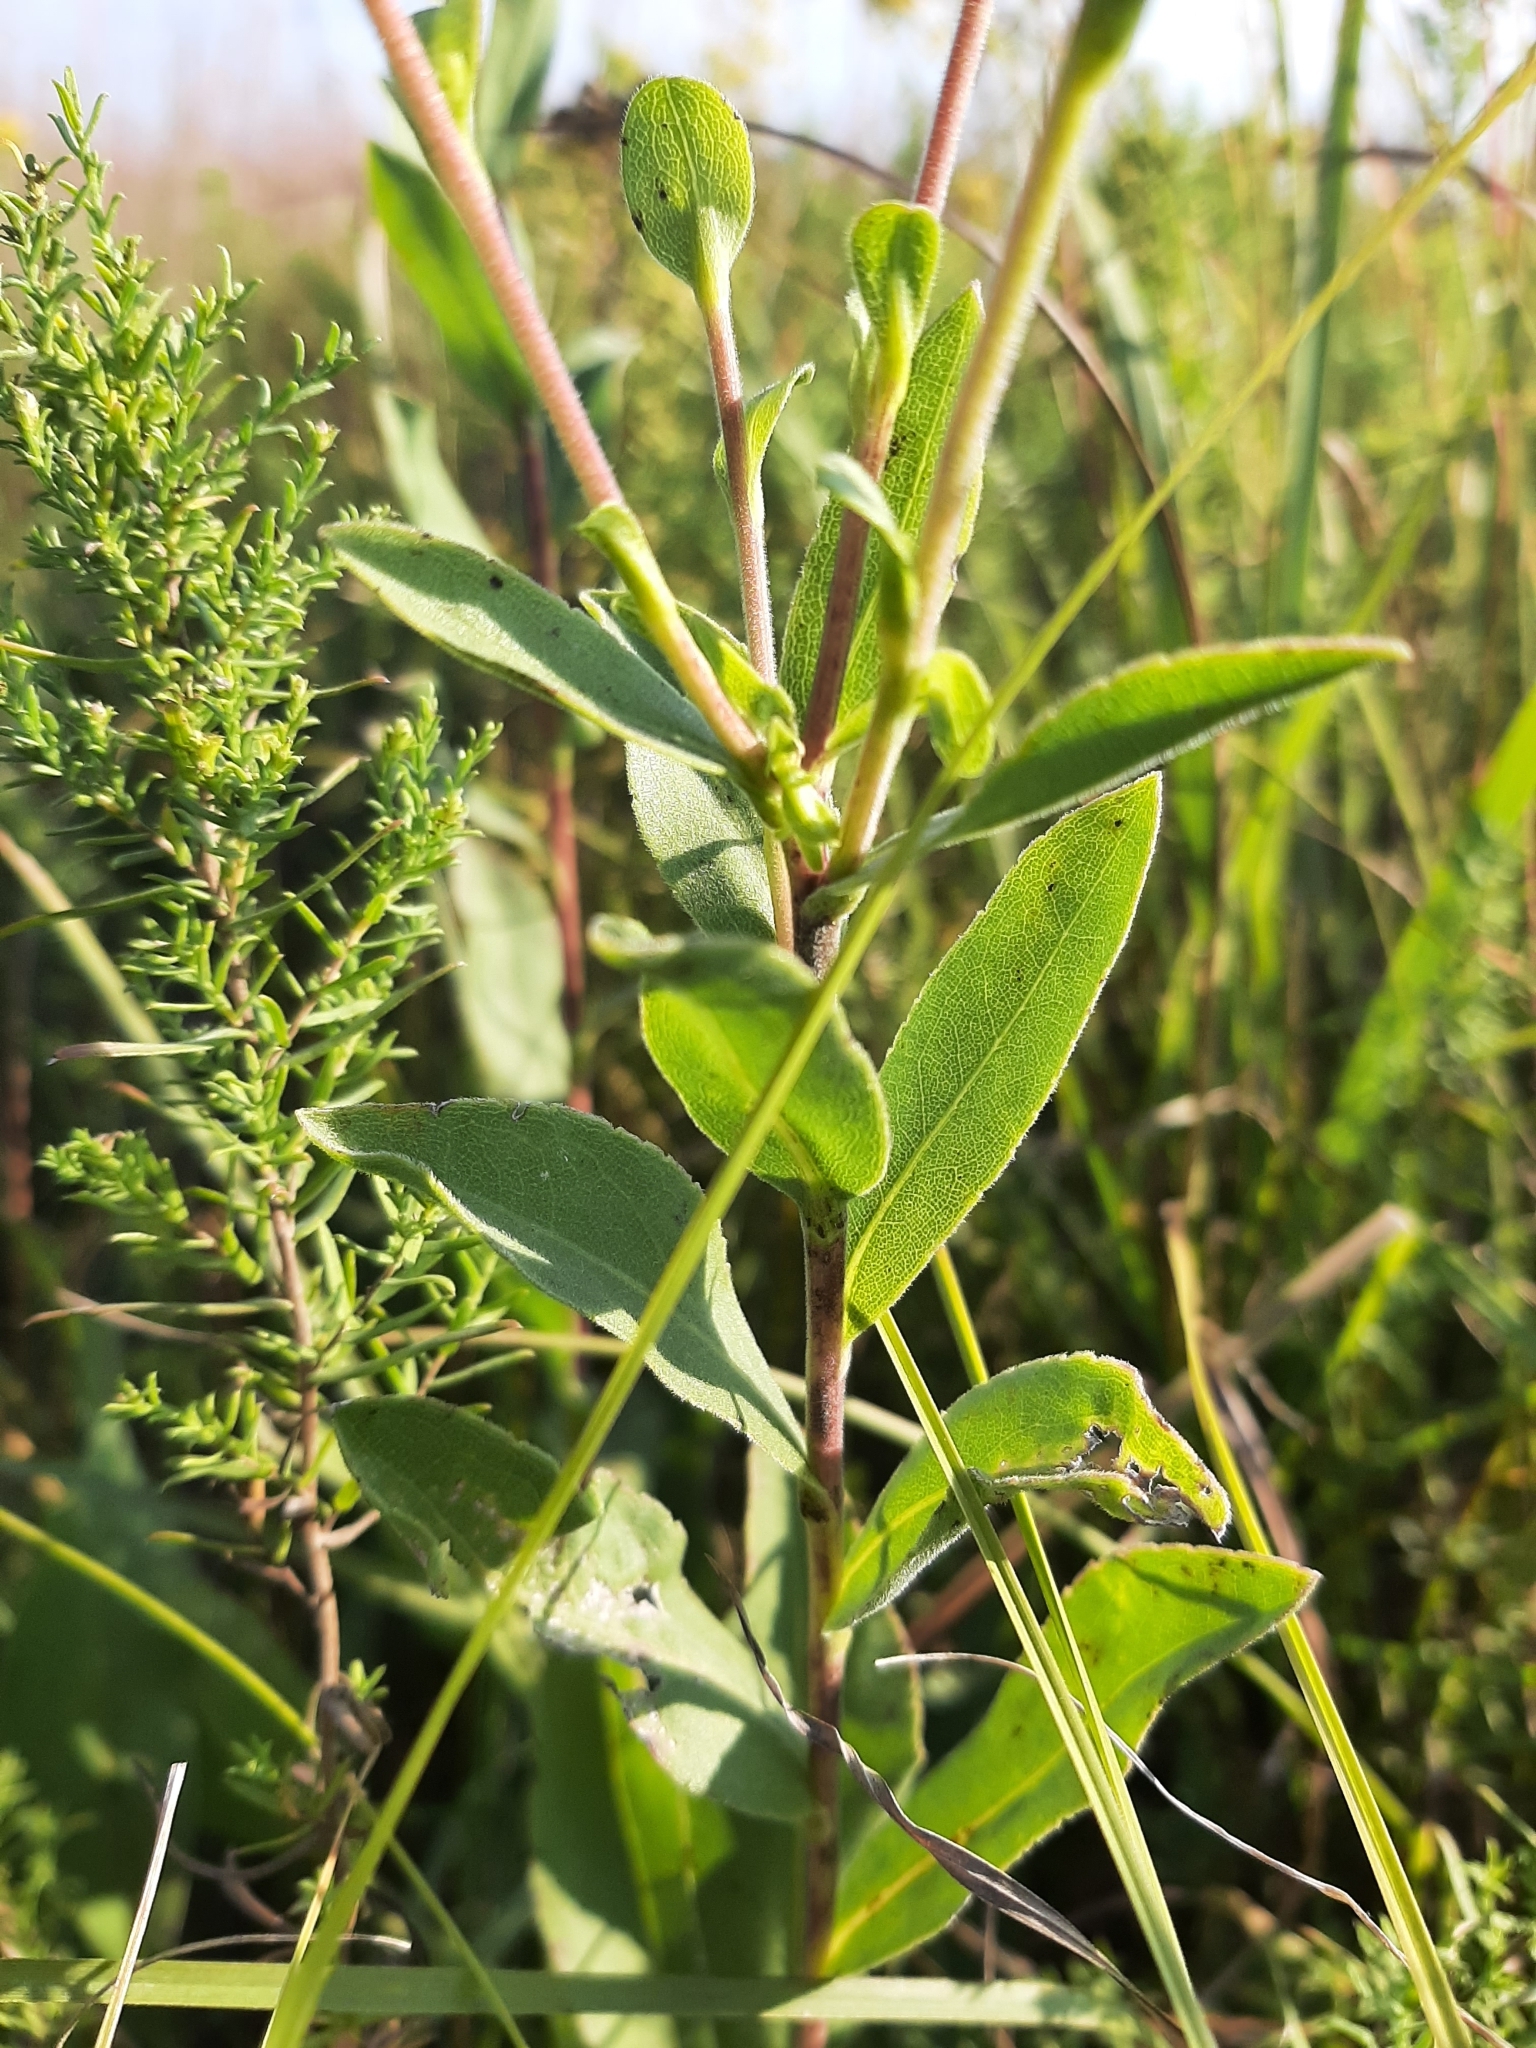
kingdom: Plantae
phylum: Tracheophyta
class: Magnoliopsida
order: Asterales
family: Asteraceae
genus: Solidago
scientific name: Solidago rigida
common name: Rigid goldenrod
